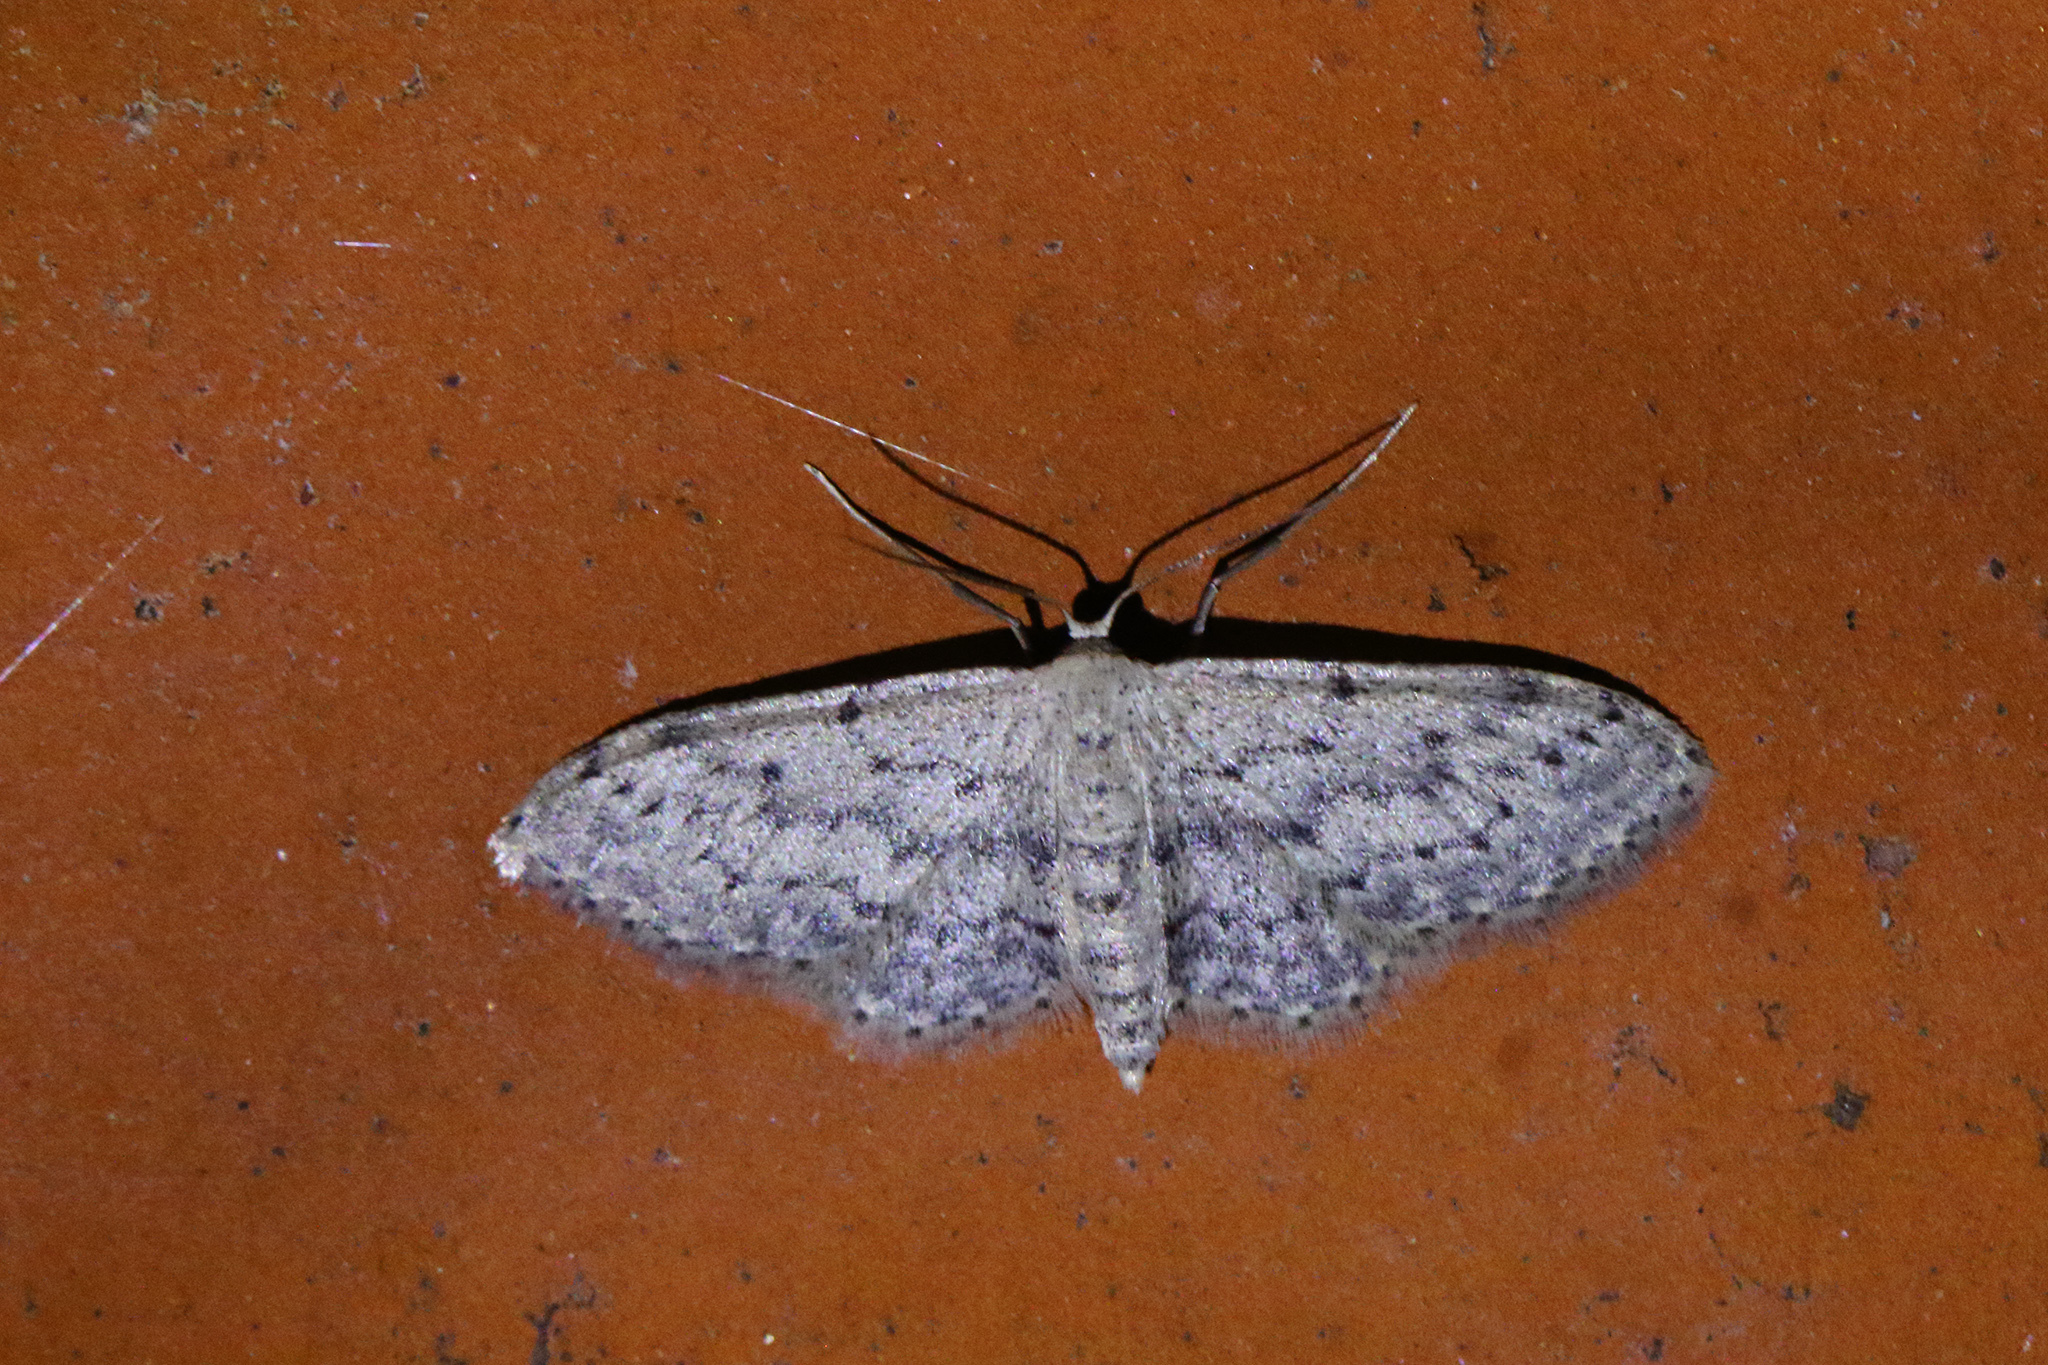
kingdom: Animalia
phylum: Arthropoda
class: Insecta
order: Lepidoptera
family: Geometridae
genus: Idaea
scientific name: Idaea seriata
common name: Small dusty wave
